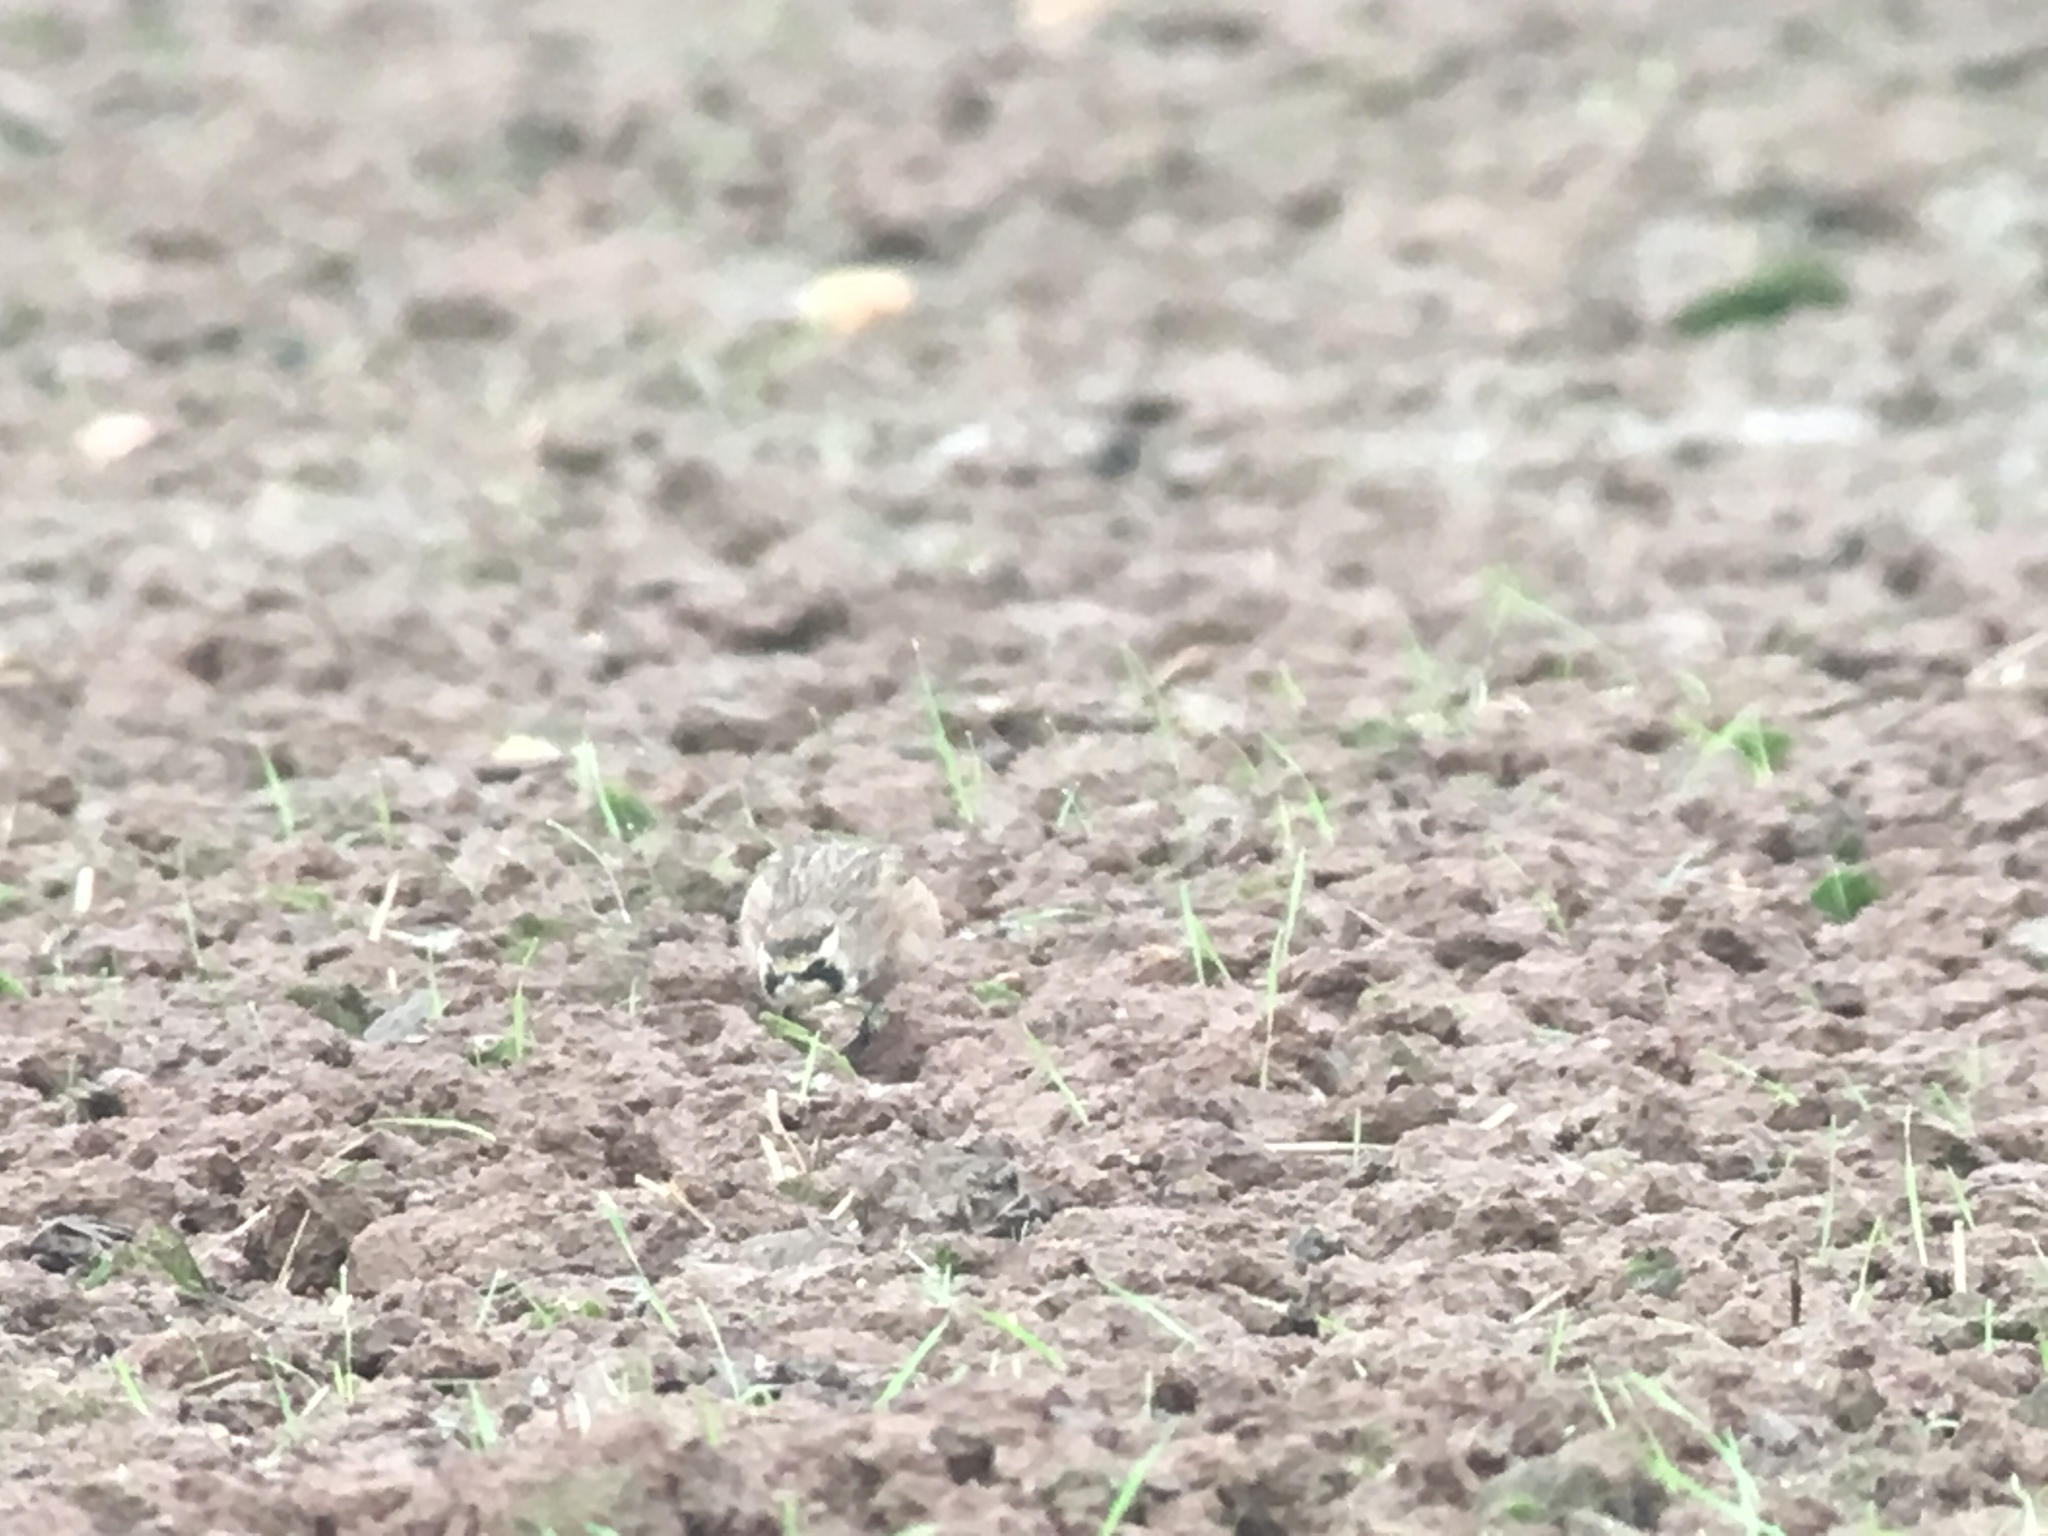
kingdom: Animalia
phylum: Chordata
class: Aves
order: Passeriformes
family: Alaudidae
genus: Eremophila
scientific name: Eremophila alpestris
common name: Horned lark
